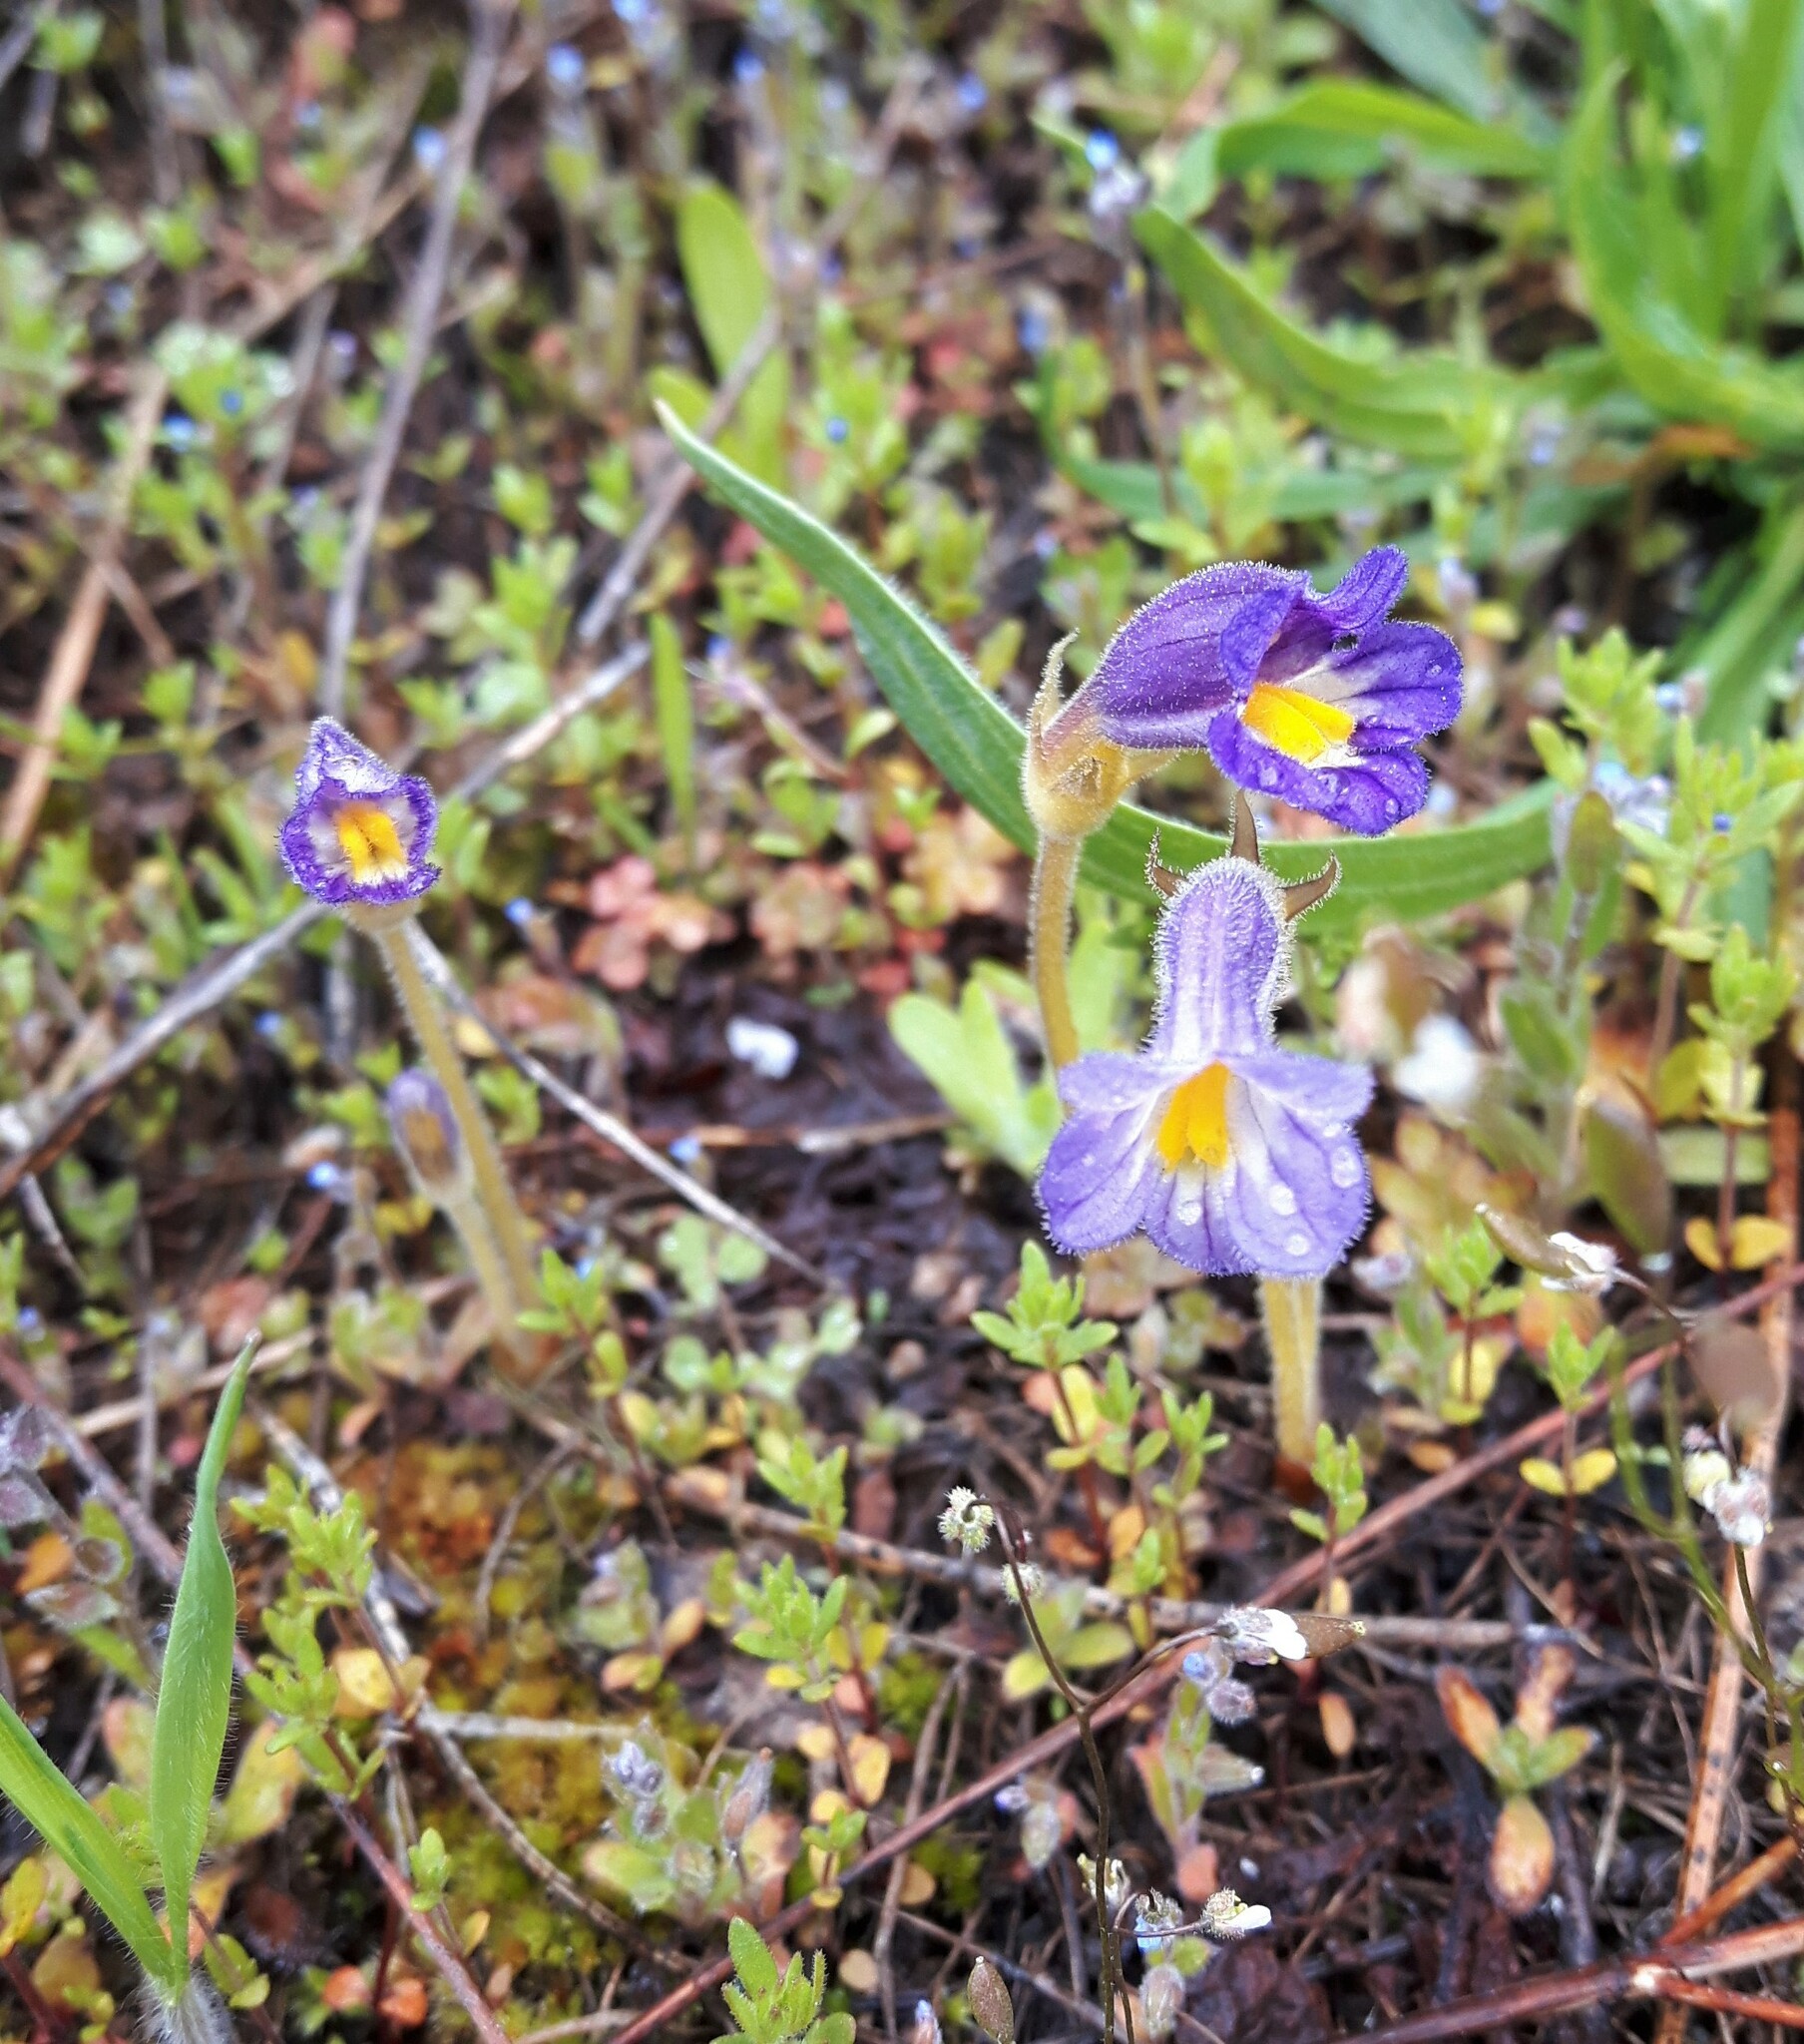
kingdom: Plantae
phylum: Tracheophyta
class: Magnoliopsida
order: Lamiales
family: Orobanchaceae
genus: Aphyllon
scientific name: Aphyllon uniflorum
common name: One-flowered broomrape
